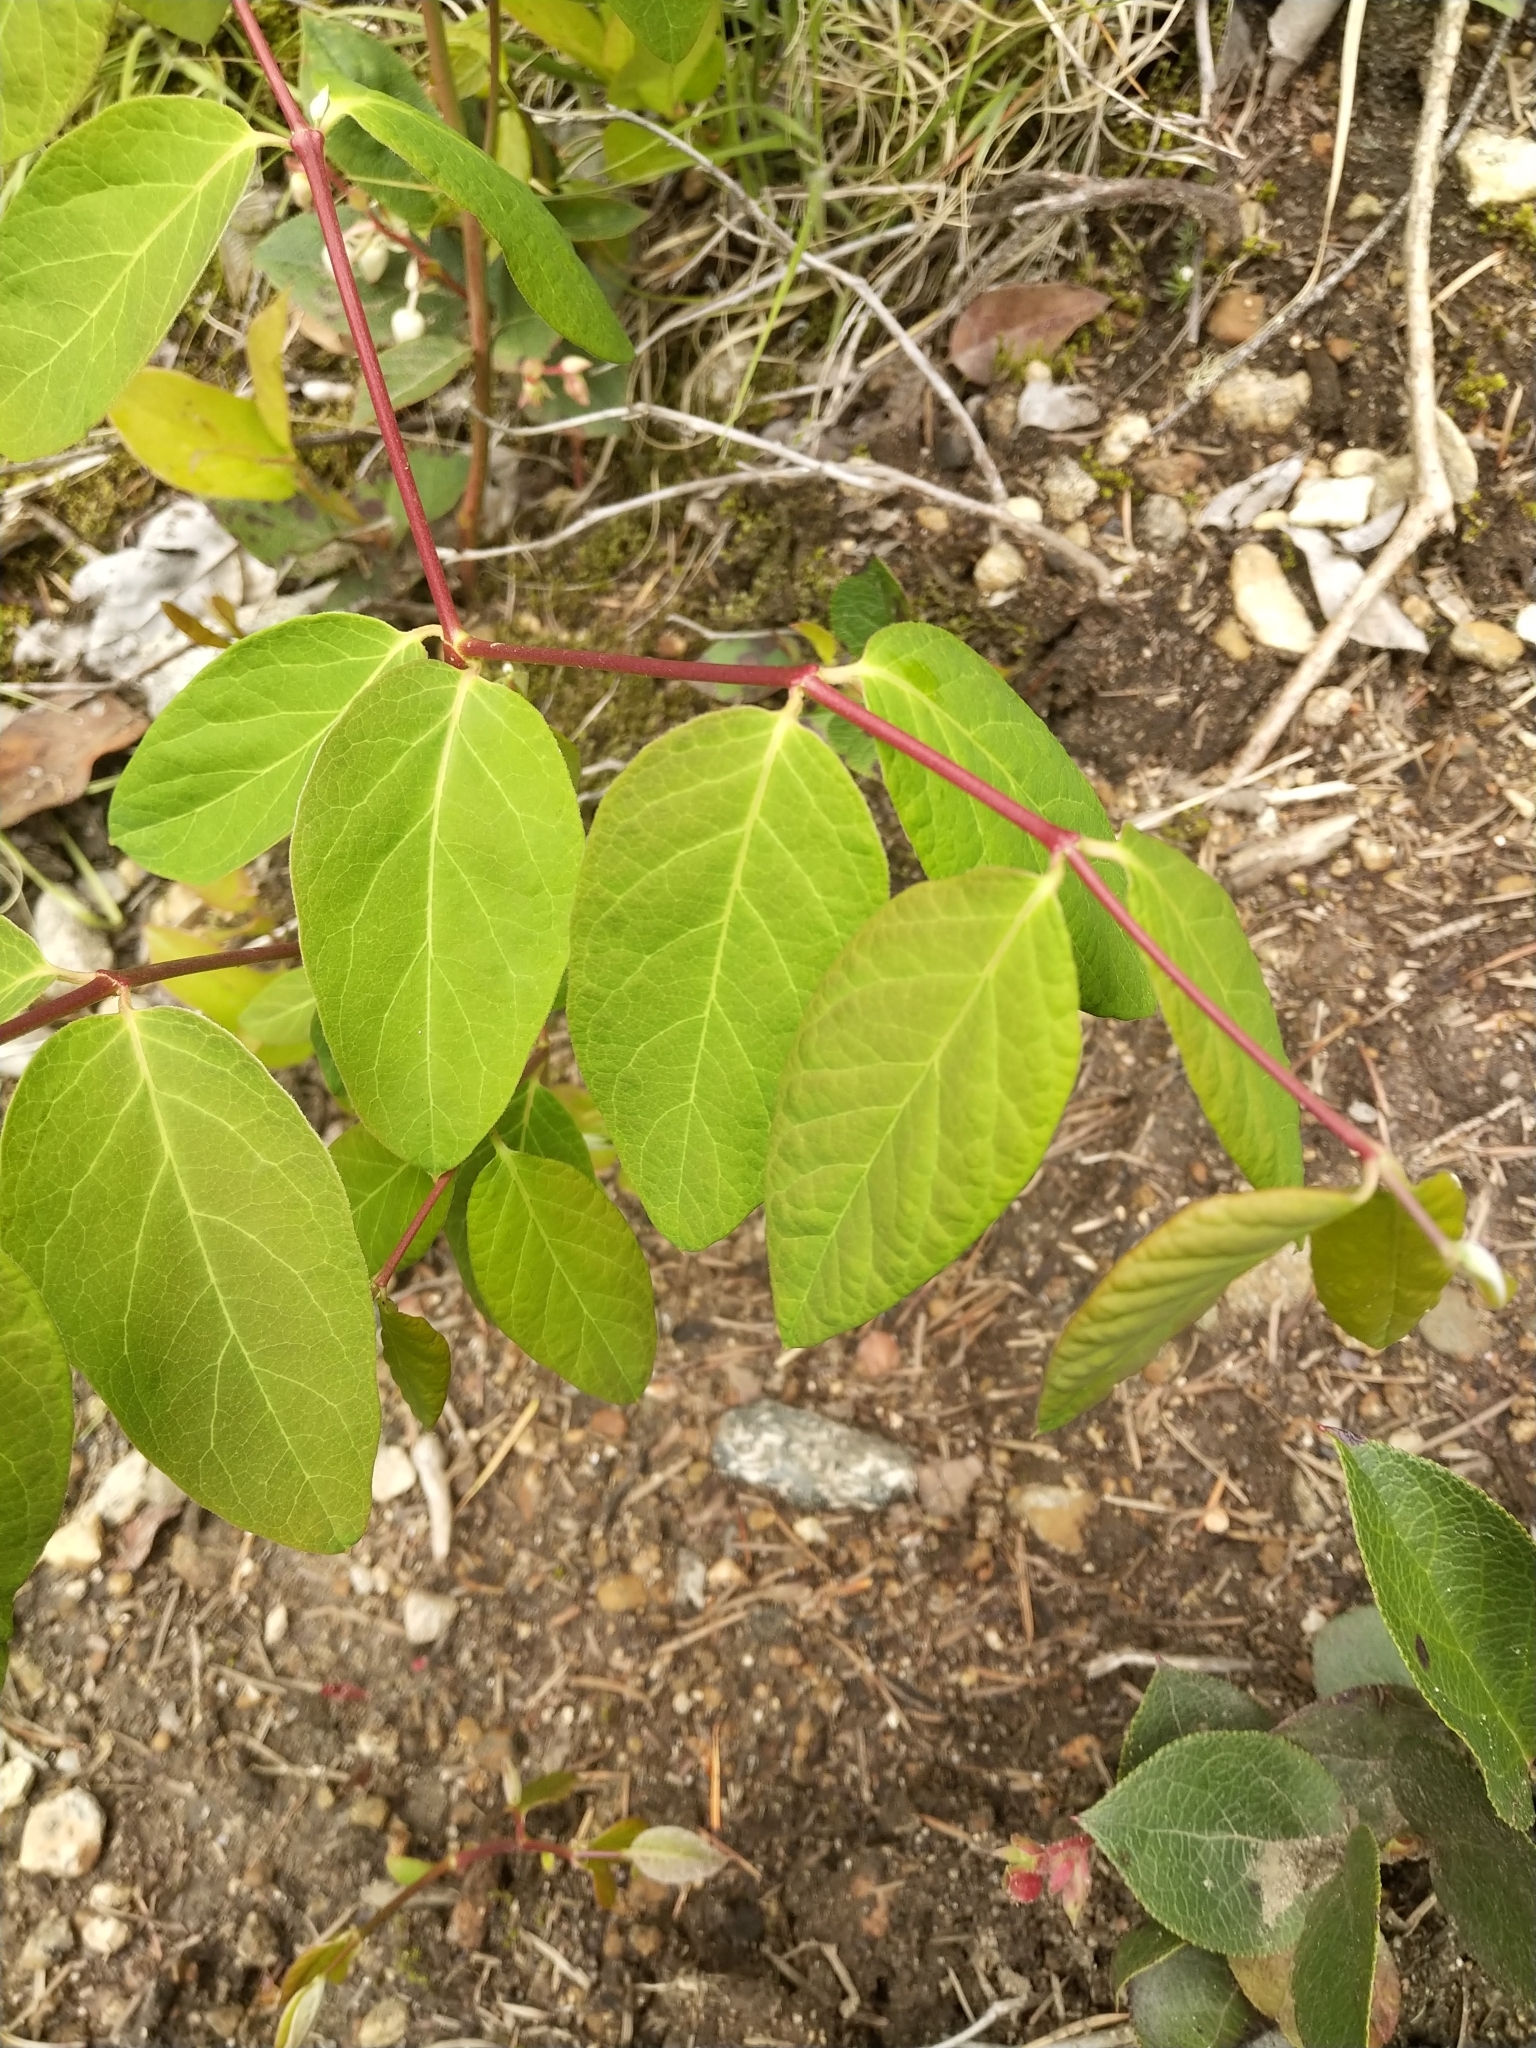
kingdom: Plantae
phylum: Tracheophyta
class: Magnoliopsida
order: Gentianales
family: Apocynaceae
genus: Apocynum
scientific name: Apocynum androsaemifolium
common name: Spreading dogbane
